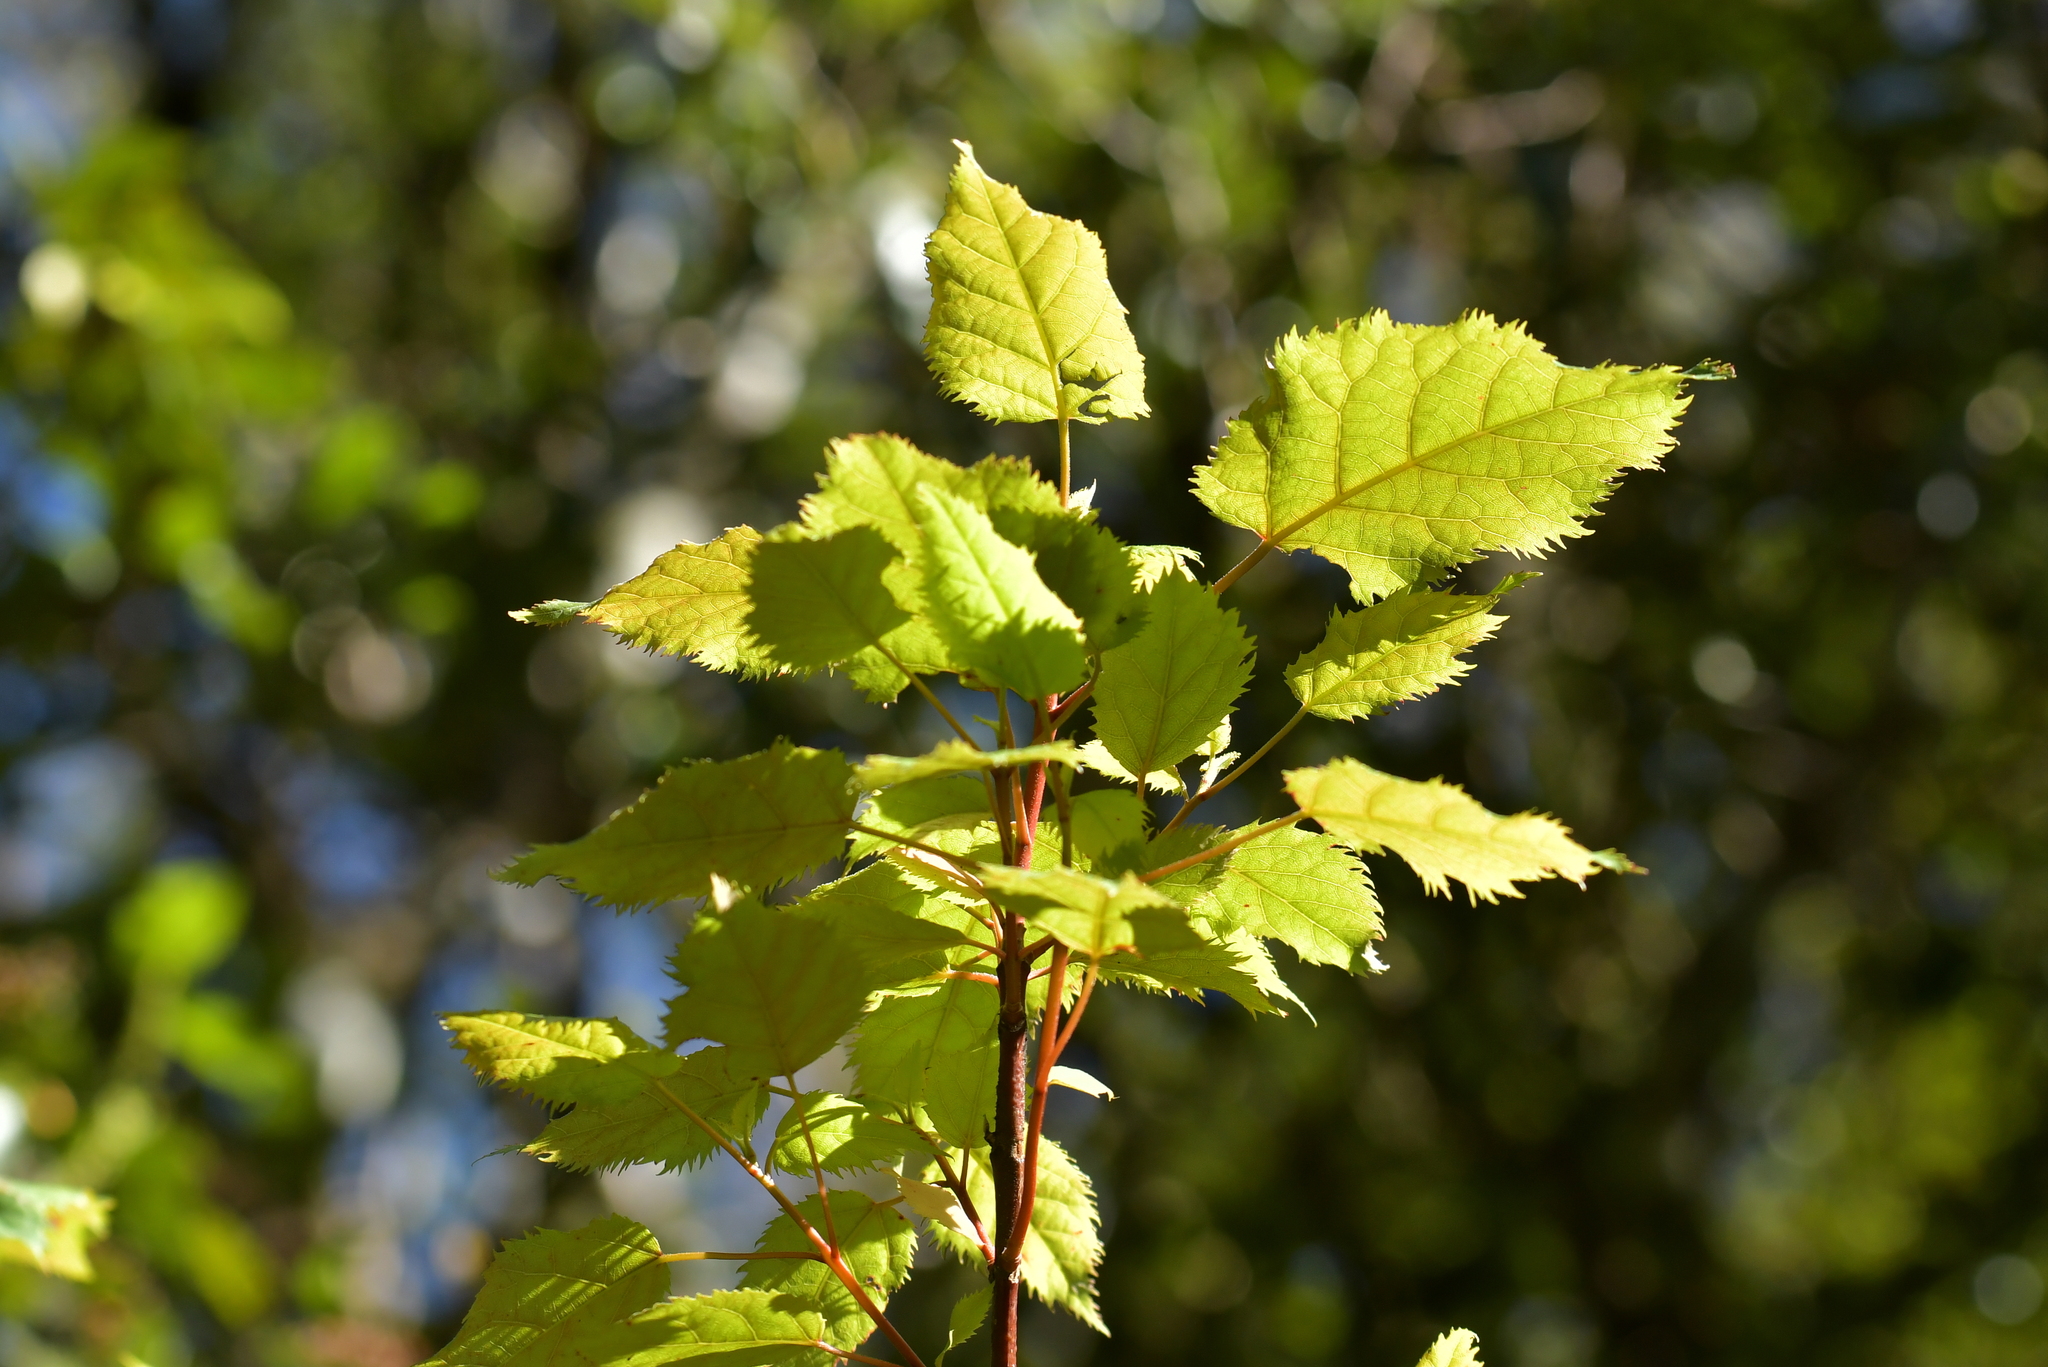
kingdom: Plantae
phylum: Tracheophyta
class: Magnoliopsida
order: Oxalidales
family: Elaeocarpaceae
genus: Aristotelia
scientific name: Aristotelia serrata
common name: New zealand wineberry
